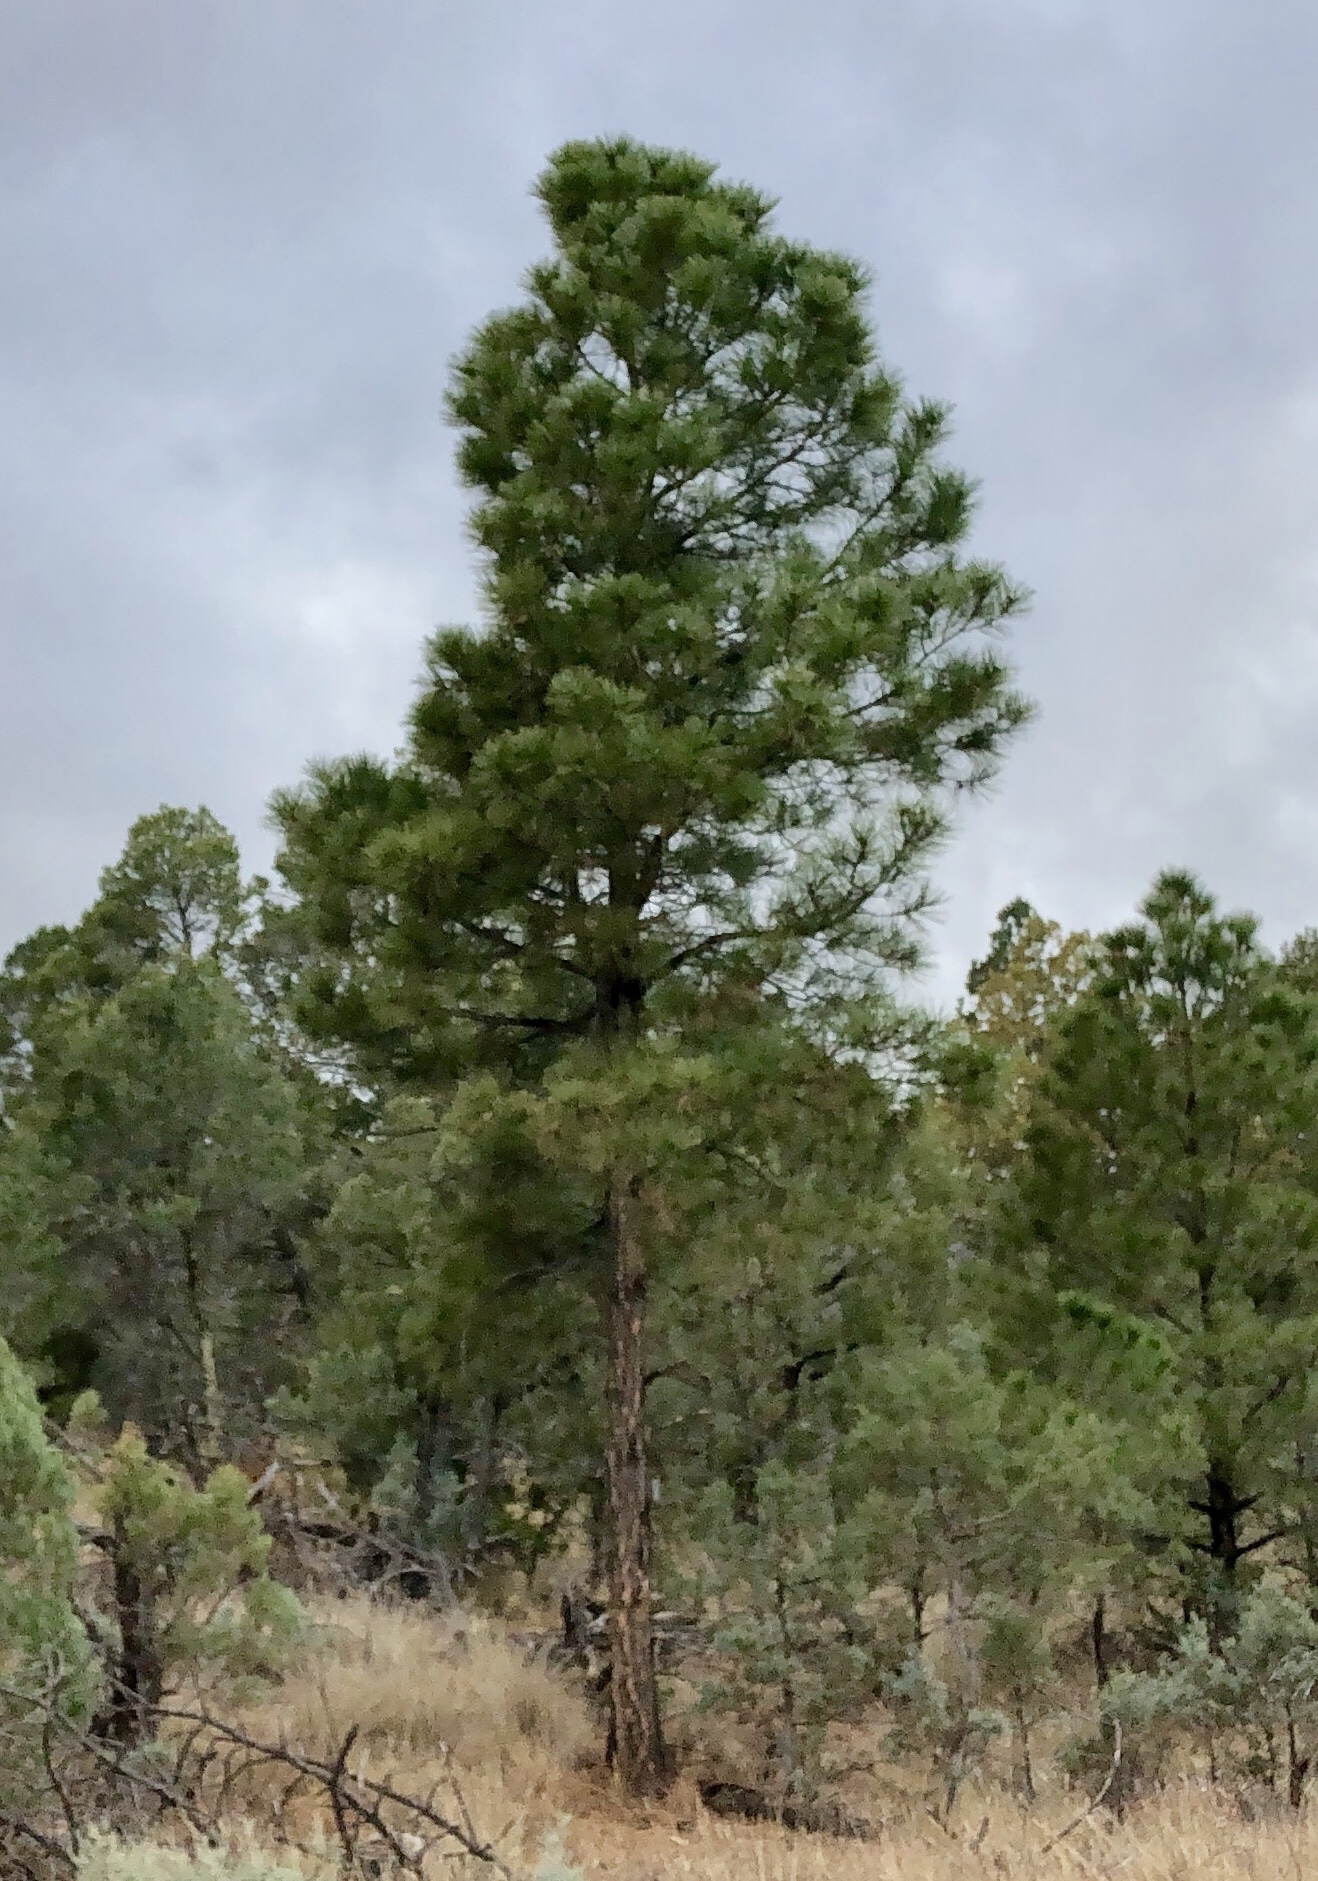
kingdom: Plantae
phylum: Tracheophyta
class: Pinopsida
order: Pinales
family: Pinaceae
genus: Pinus
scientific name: Pinus ponderosa
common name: Western yellow-pine
